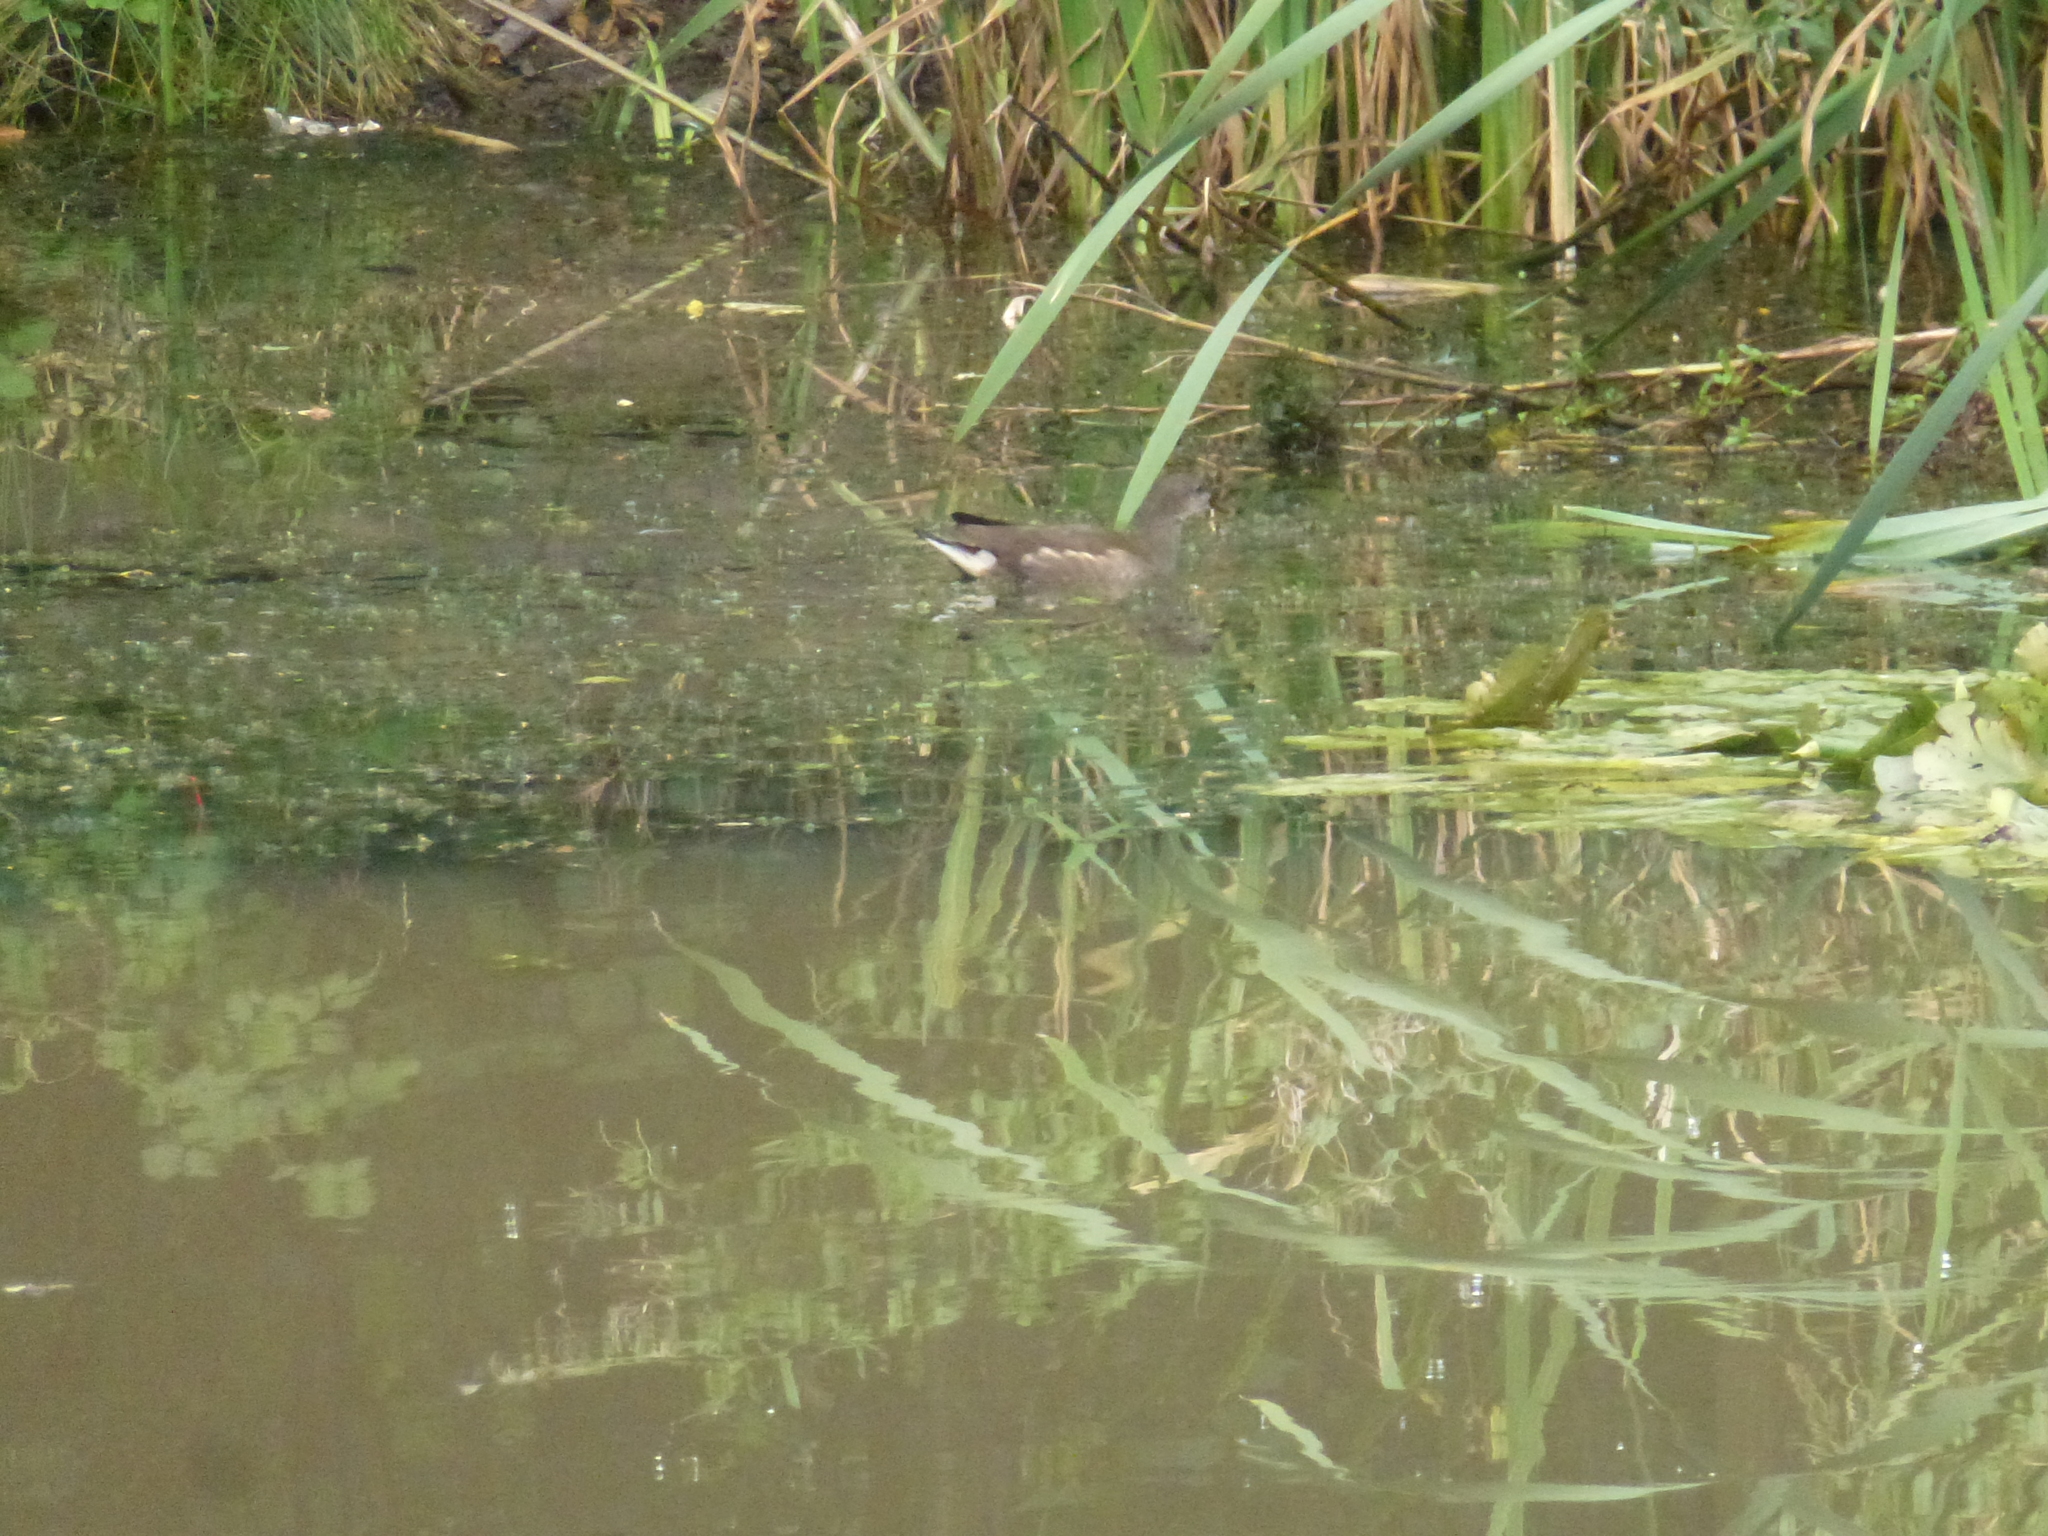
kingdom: Animalia
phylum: Chordata
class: Aves
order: Gruiformes
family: Rallidae
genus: Gallinula
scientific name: Gallinula chloropus
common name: Common moorhen
